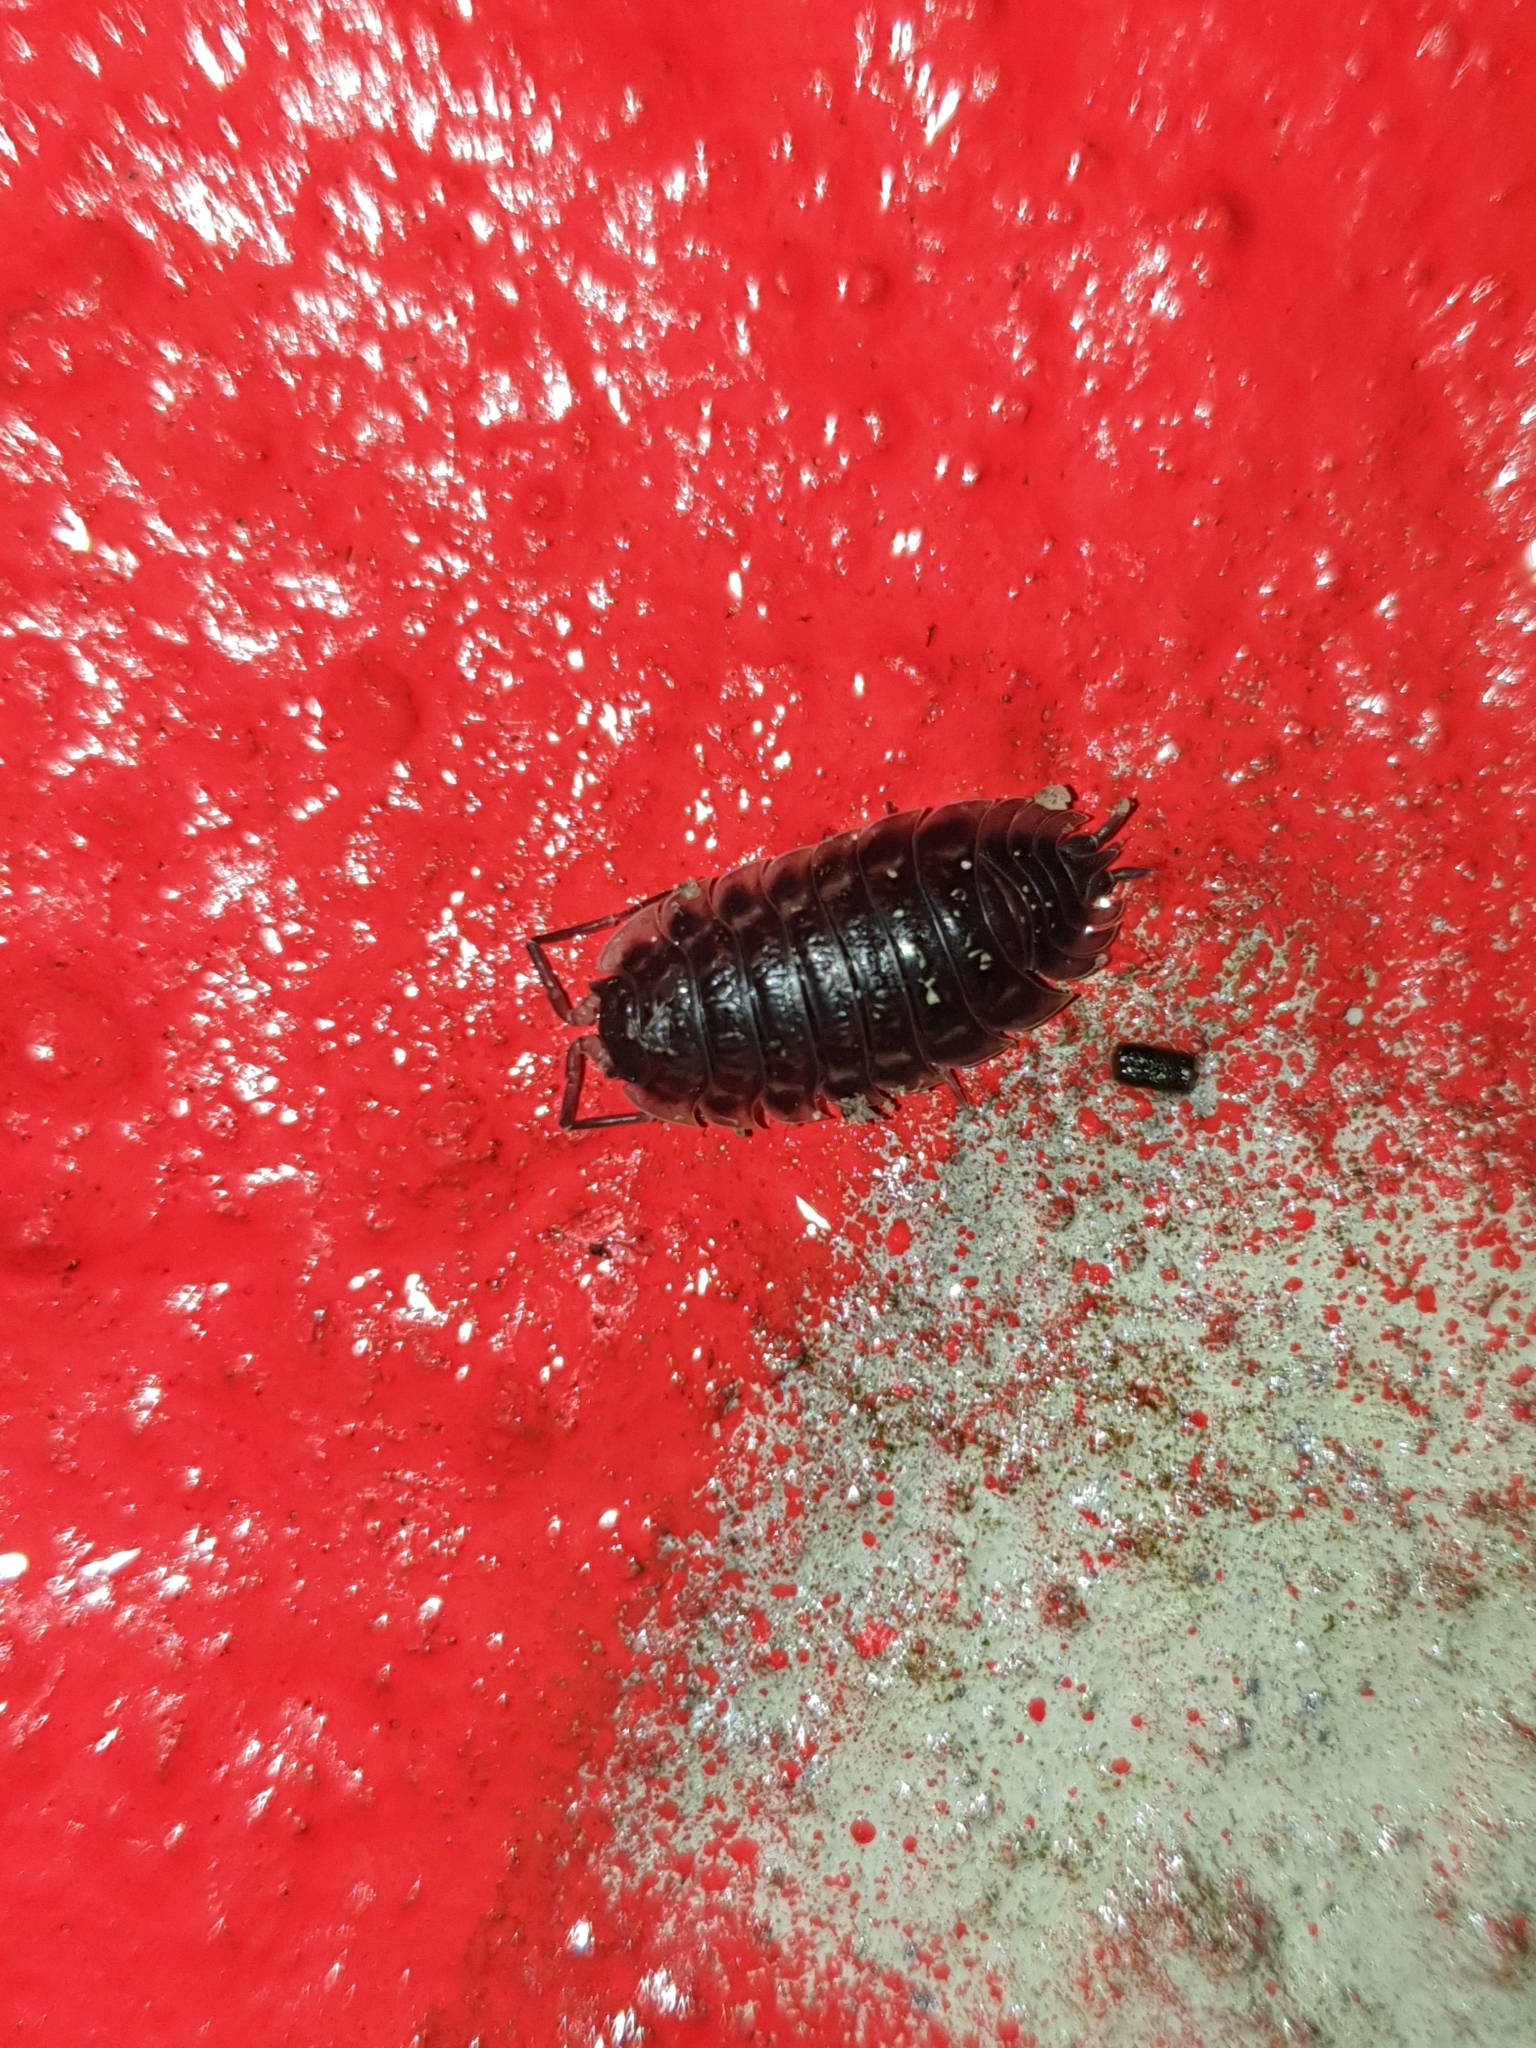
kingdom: Animalia
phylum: Arthropoda
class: Malacostraca
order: Isopoda
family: Oniscidae
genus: Oniscus
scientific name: Oniscus asellus
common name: Common shiny woodlouse
